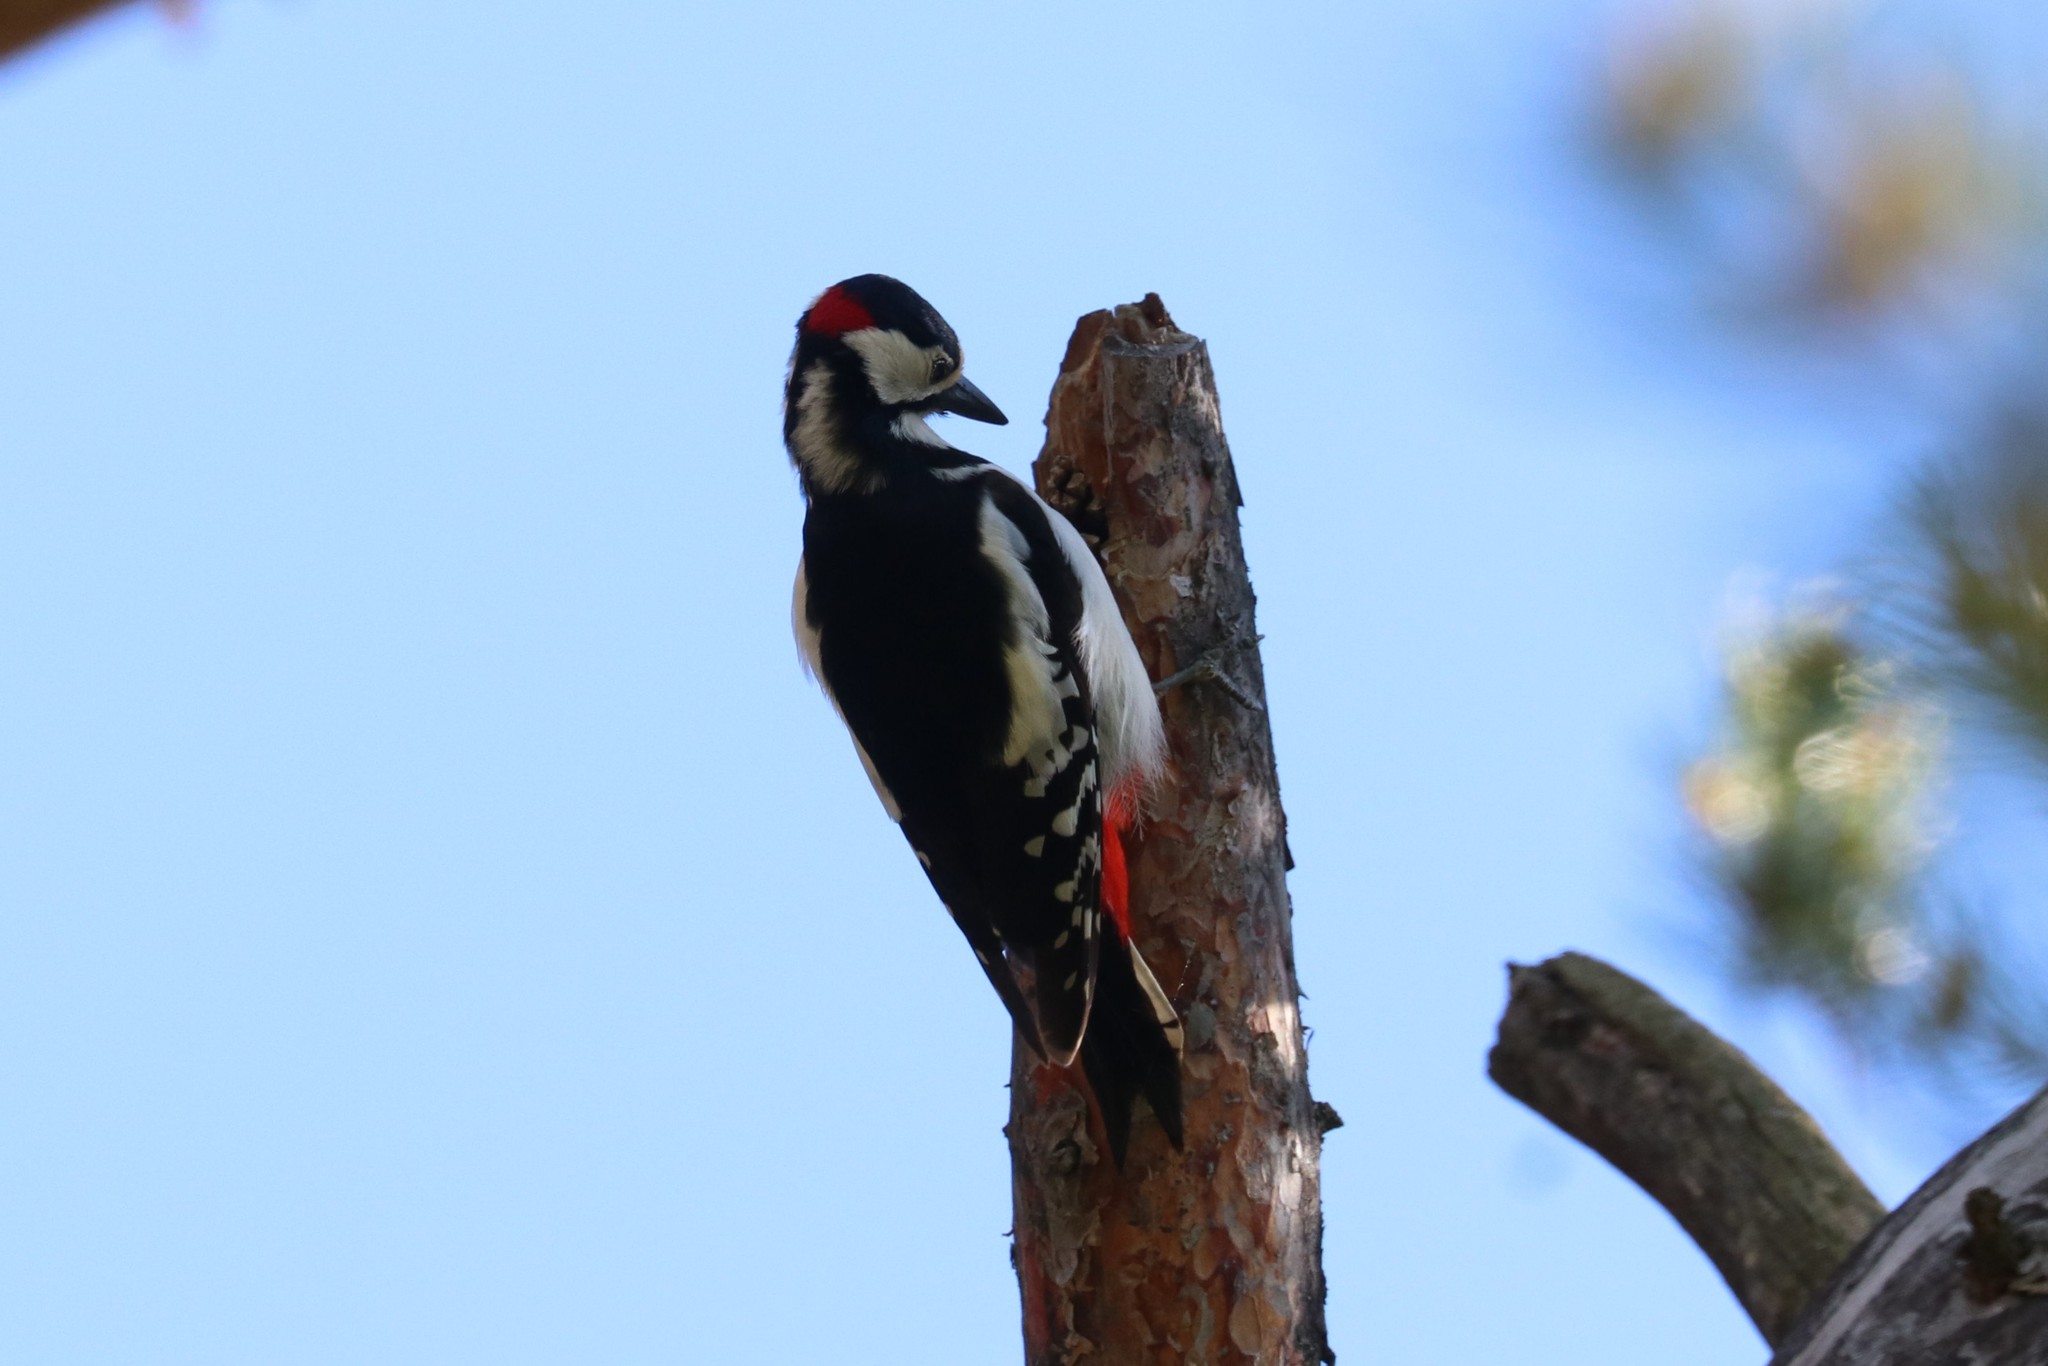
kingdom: Animalia
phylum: Chordata
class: Aves
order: Piciformes
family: Picidae
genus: Dendrocopos
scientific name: Dendrocopos major
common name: Great spotted woodpecker
